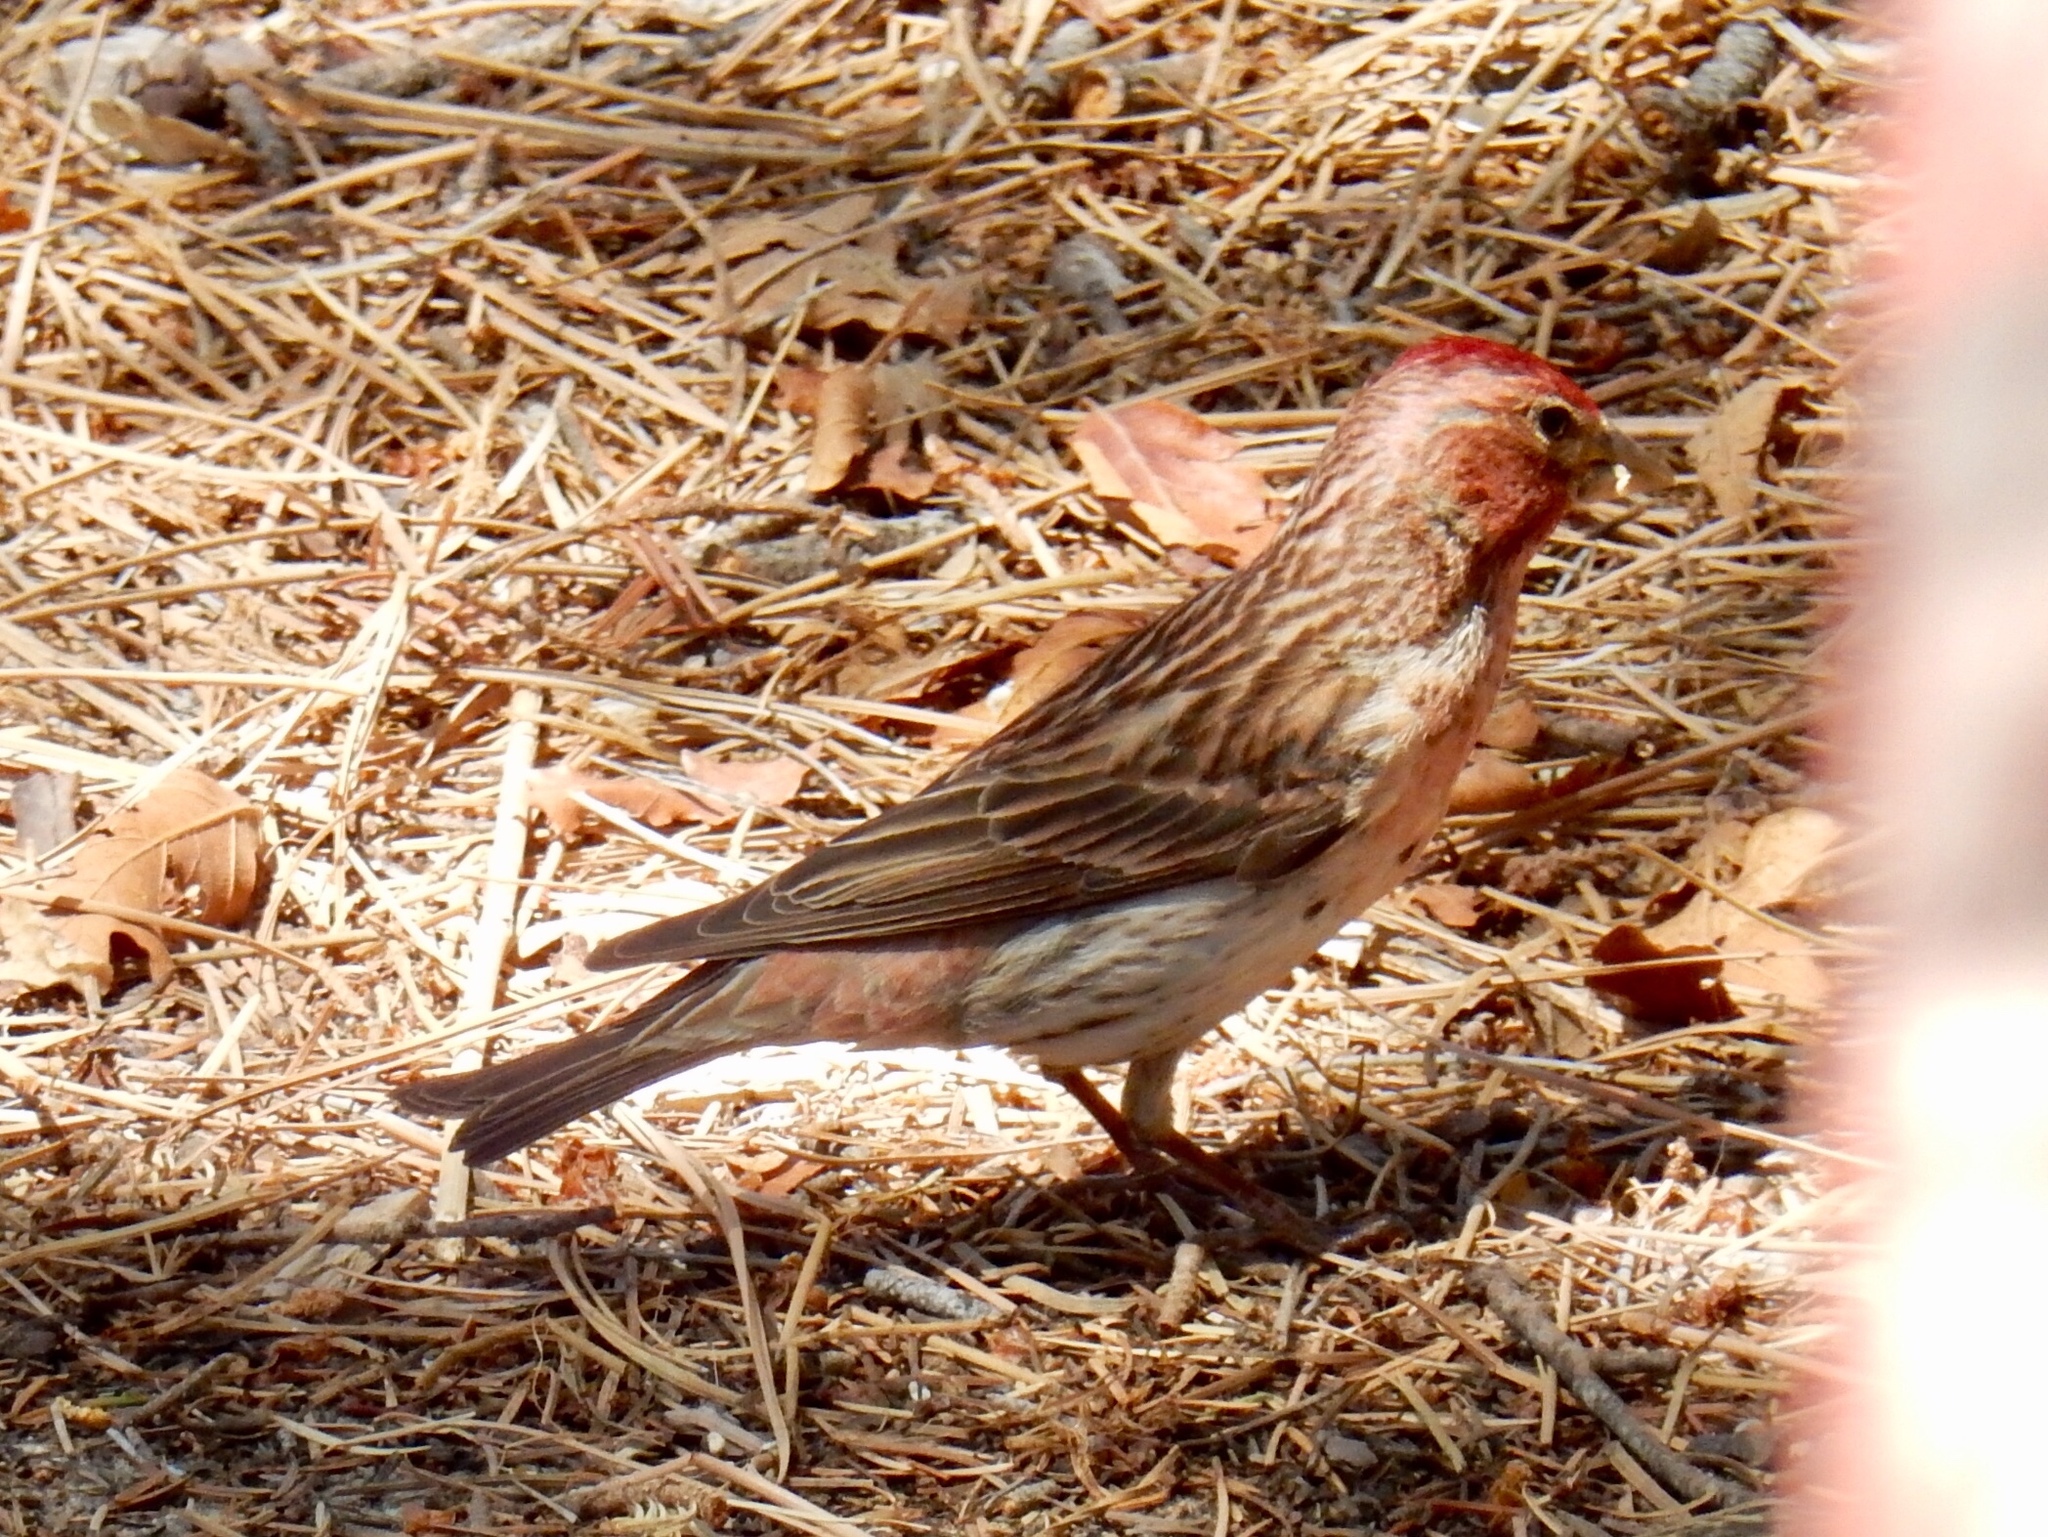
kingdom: Animalia
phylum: Chordata
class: Aves
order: Passeriformes
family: Fringillidae
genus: Haemorhous
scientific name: Haemorhous cassinii
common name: Cassin's finch
